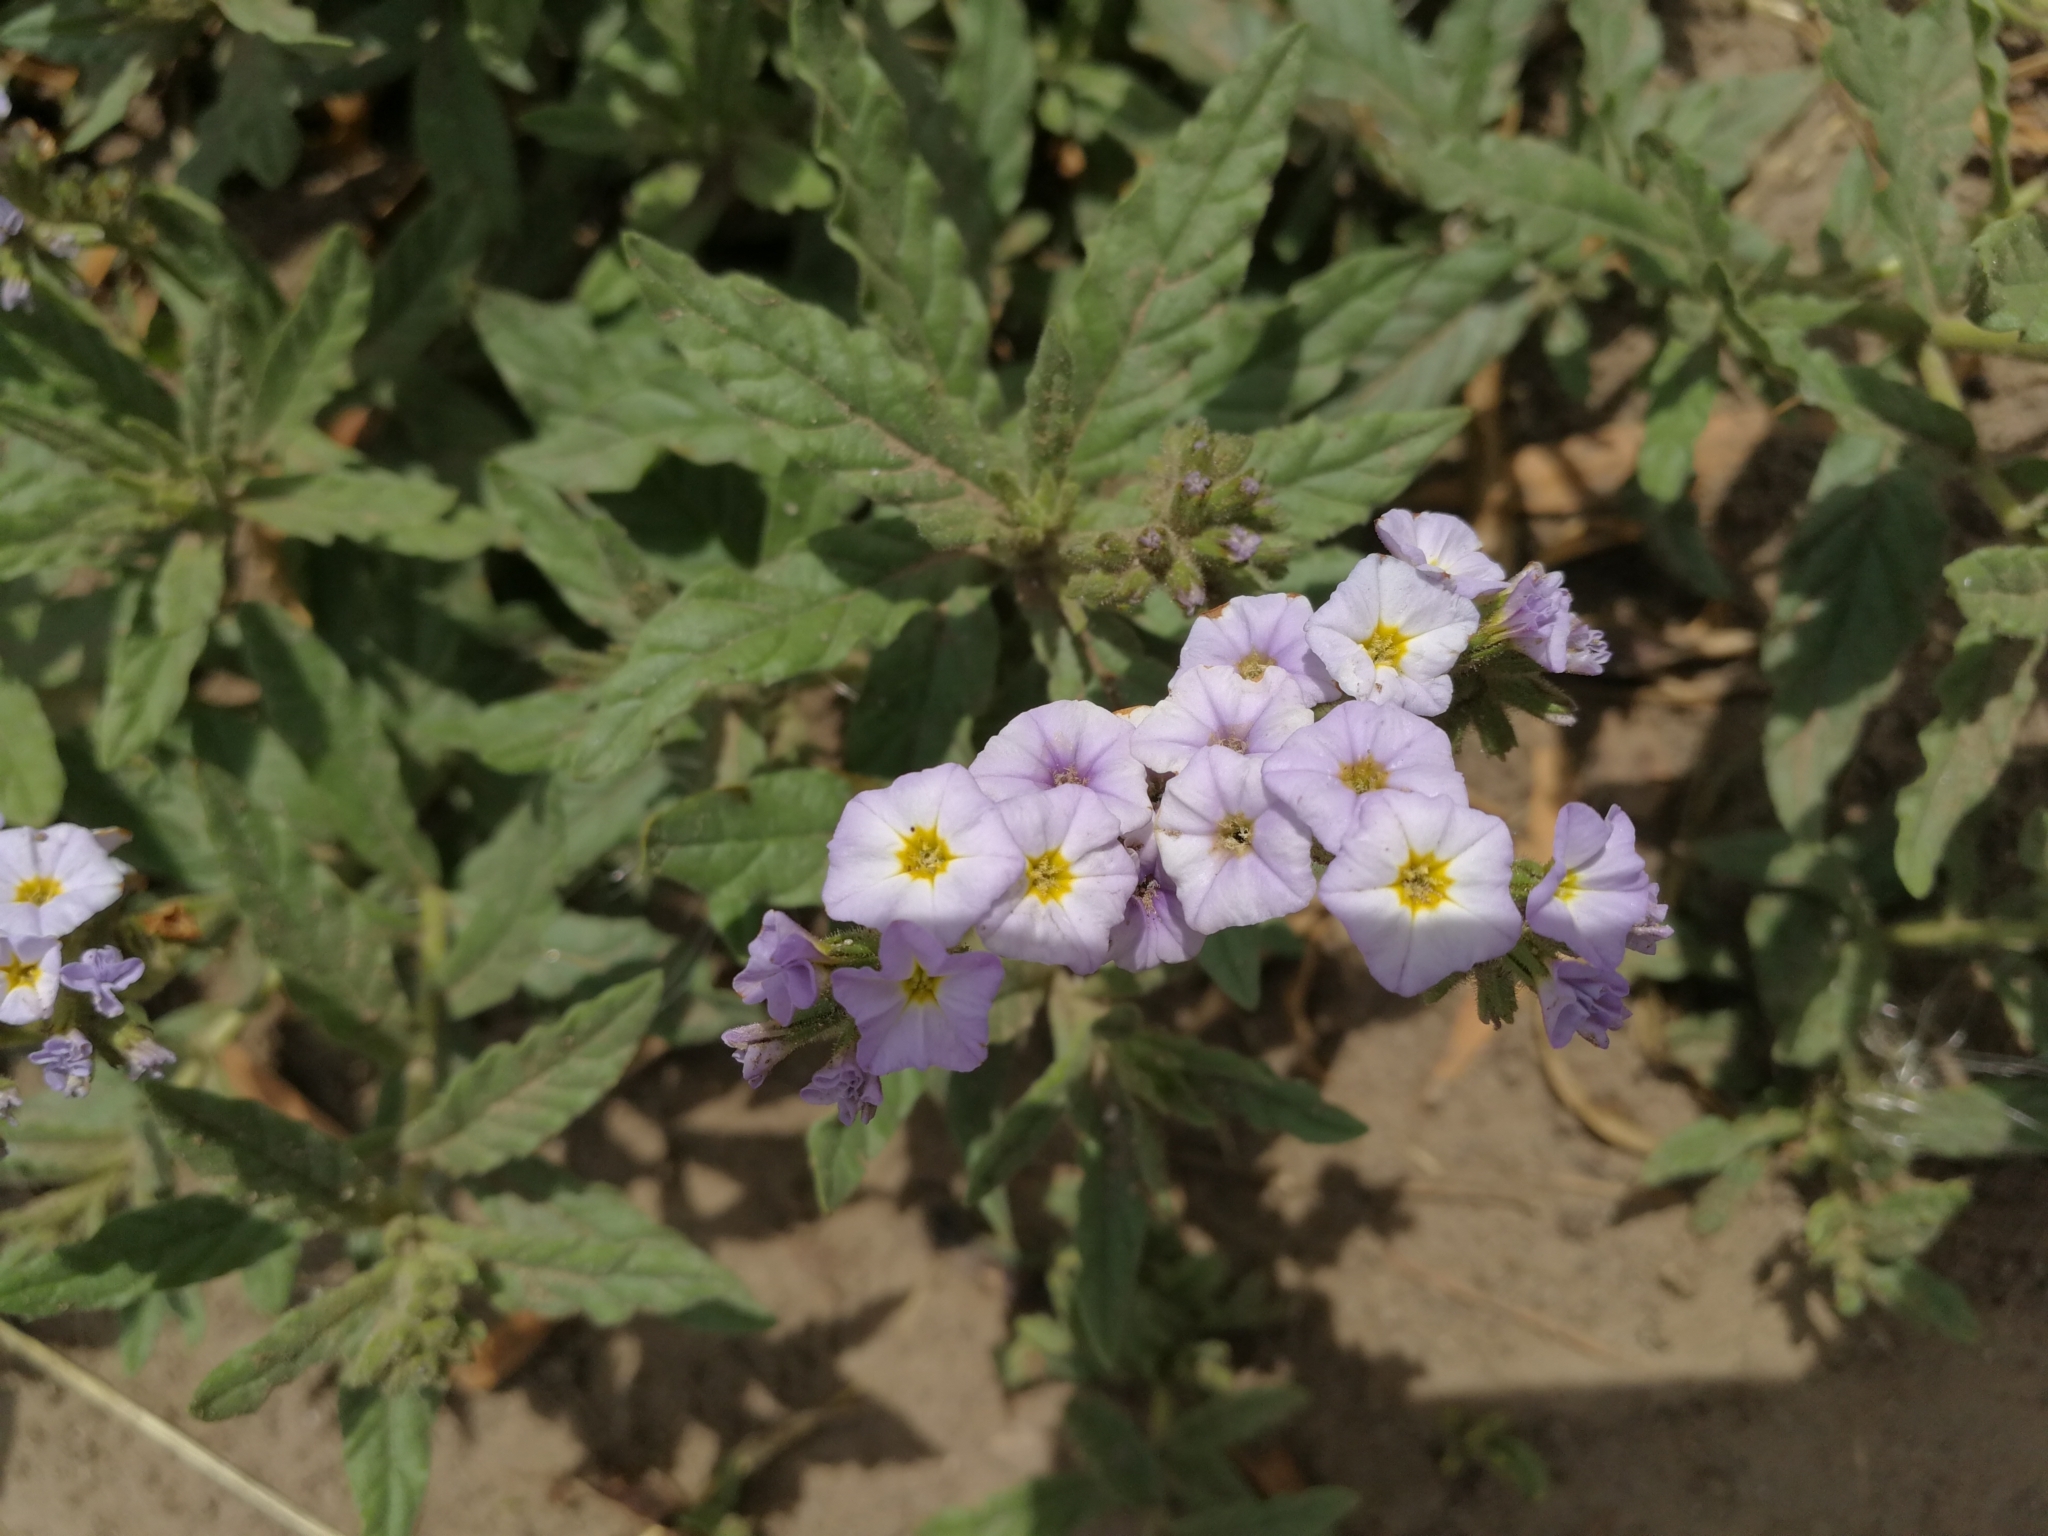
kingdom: Plantae
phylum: Tracheophyta
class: Magnoliopsida
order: Boraginales
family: Heliotropiaceae
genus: Heliotropium
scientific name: Heliotropium amplexicaule
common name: Clasping heliotrope
